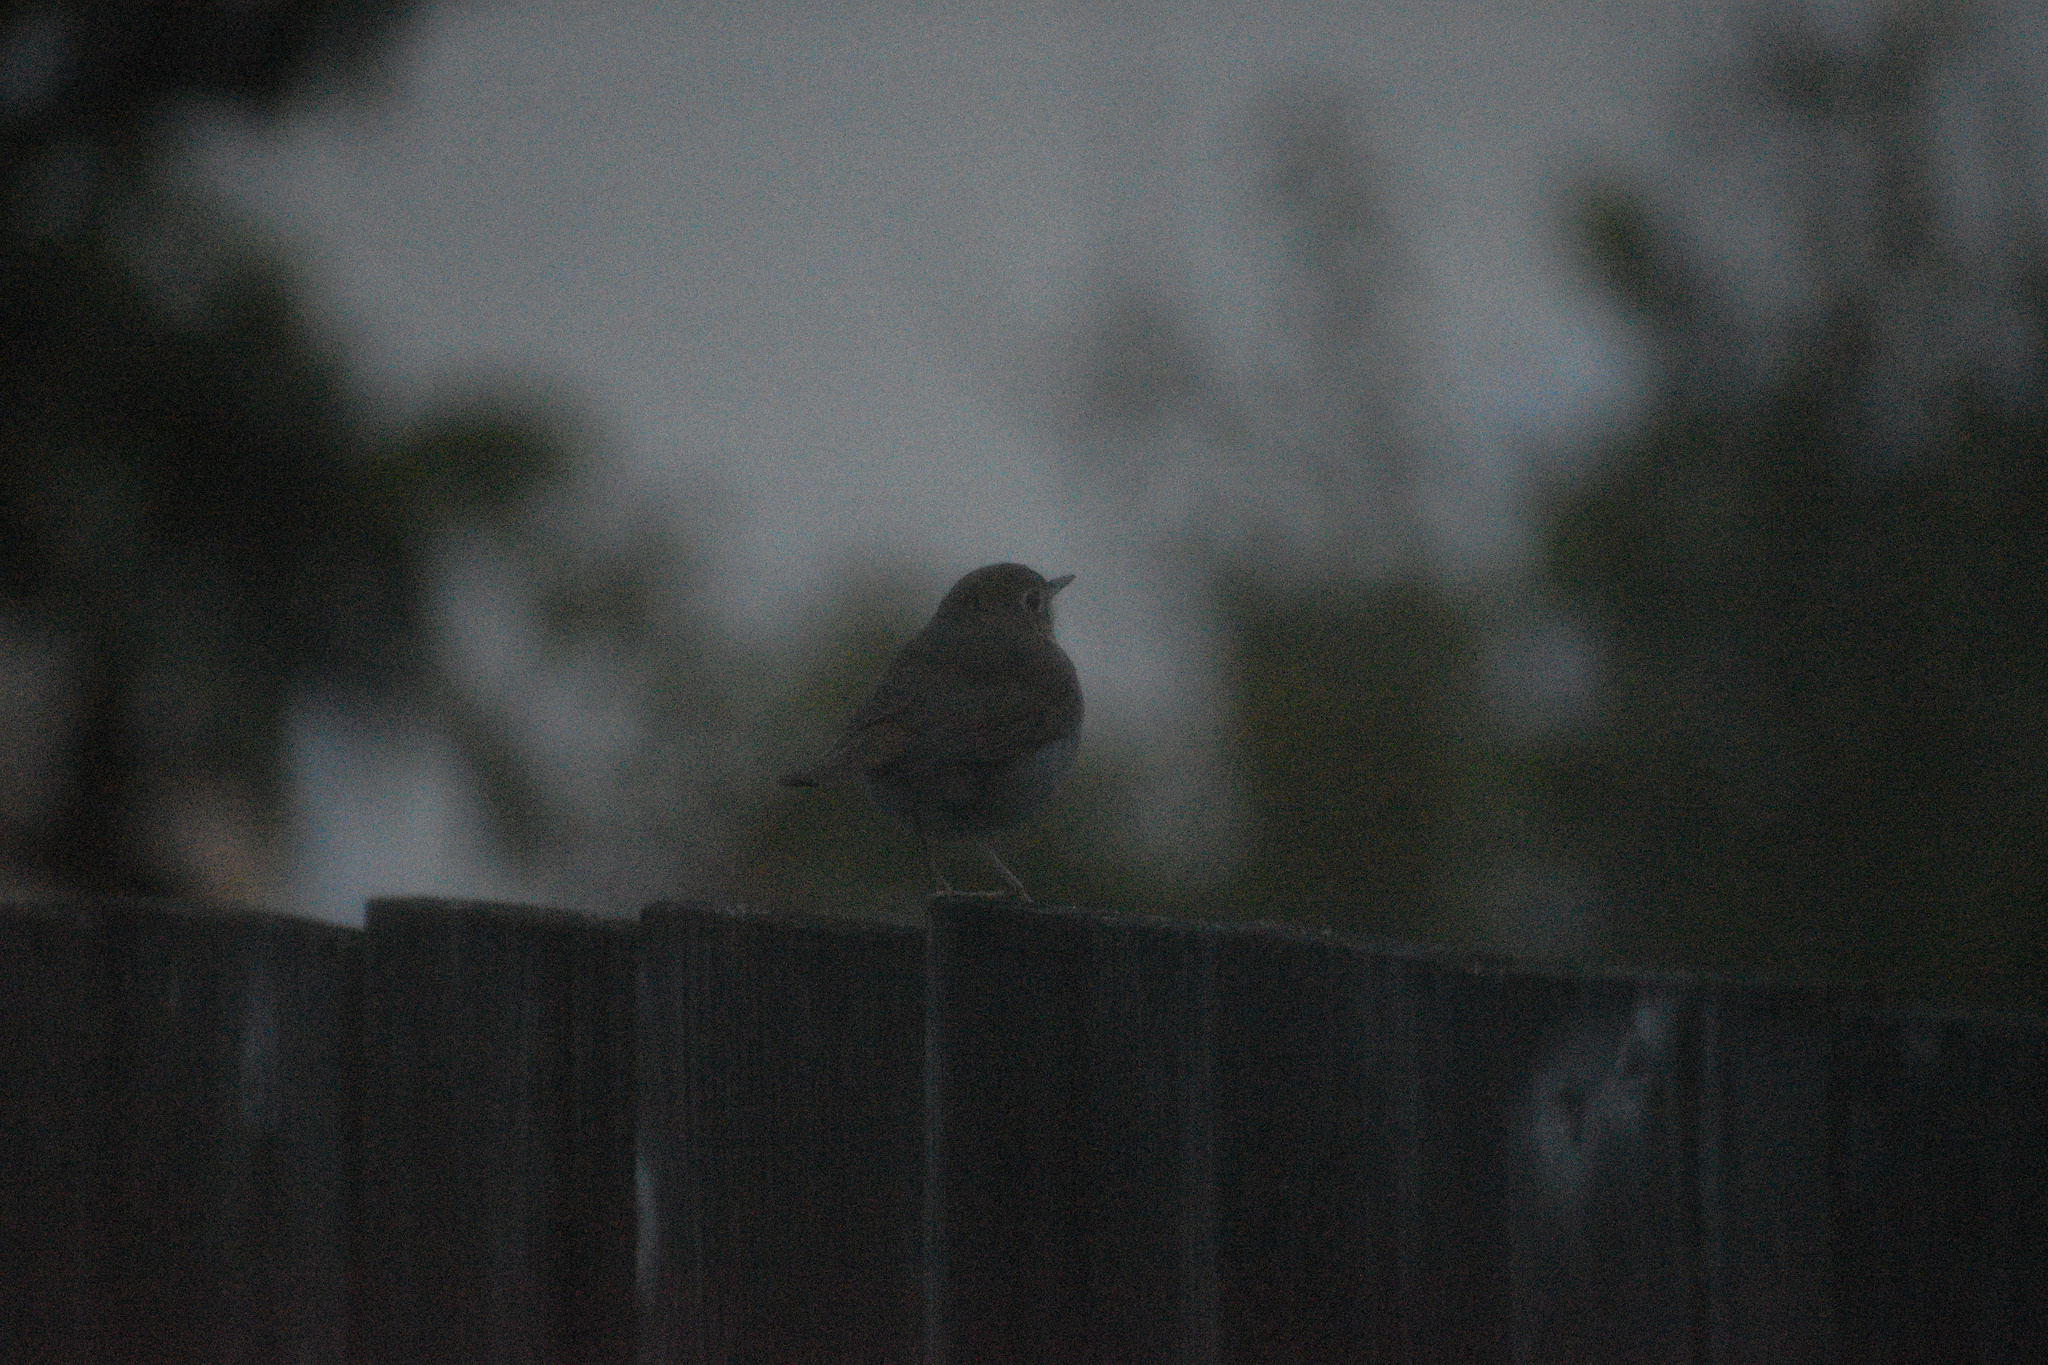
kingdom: Animalia
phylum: Chordata
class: Aves
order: Passeriformes
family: Turdidae
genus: Catharus
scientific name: Catharus guttatus
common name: Hermit thrush
